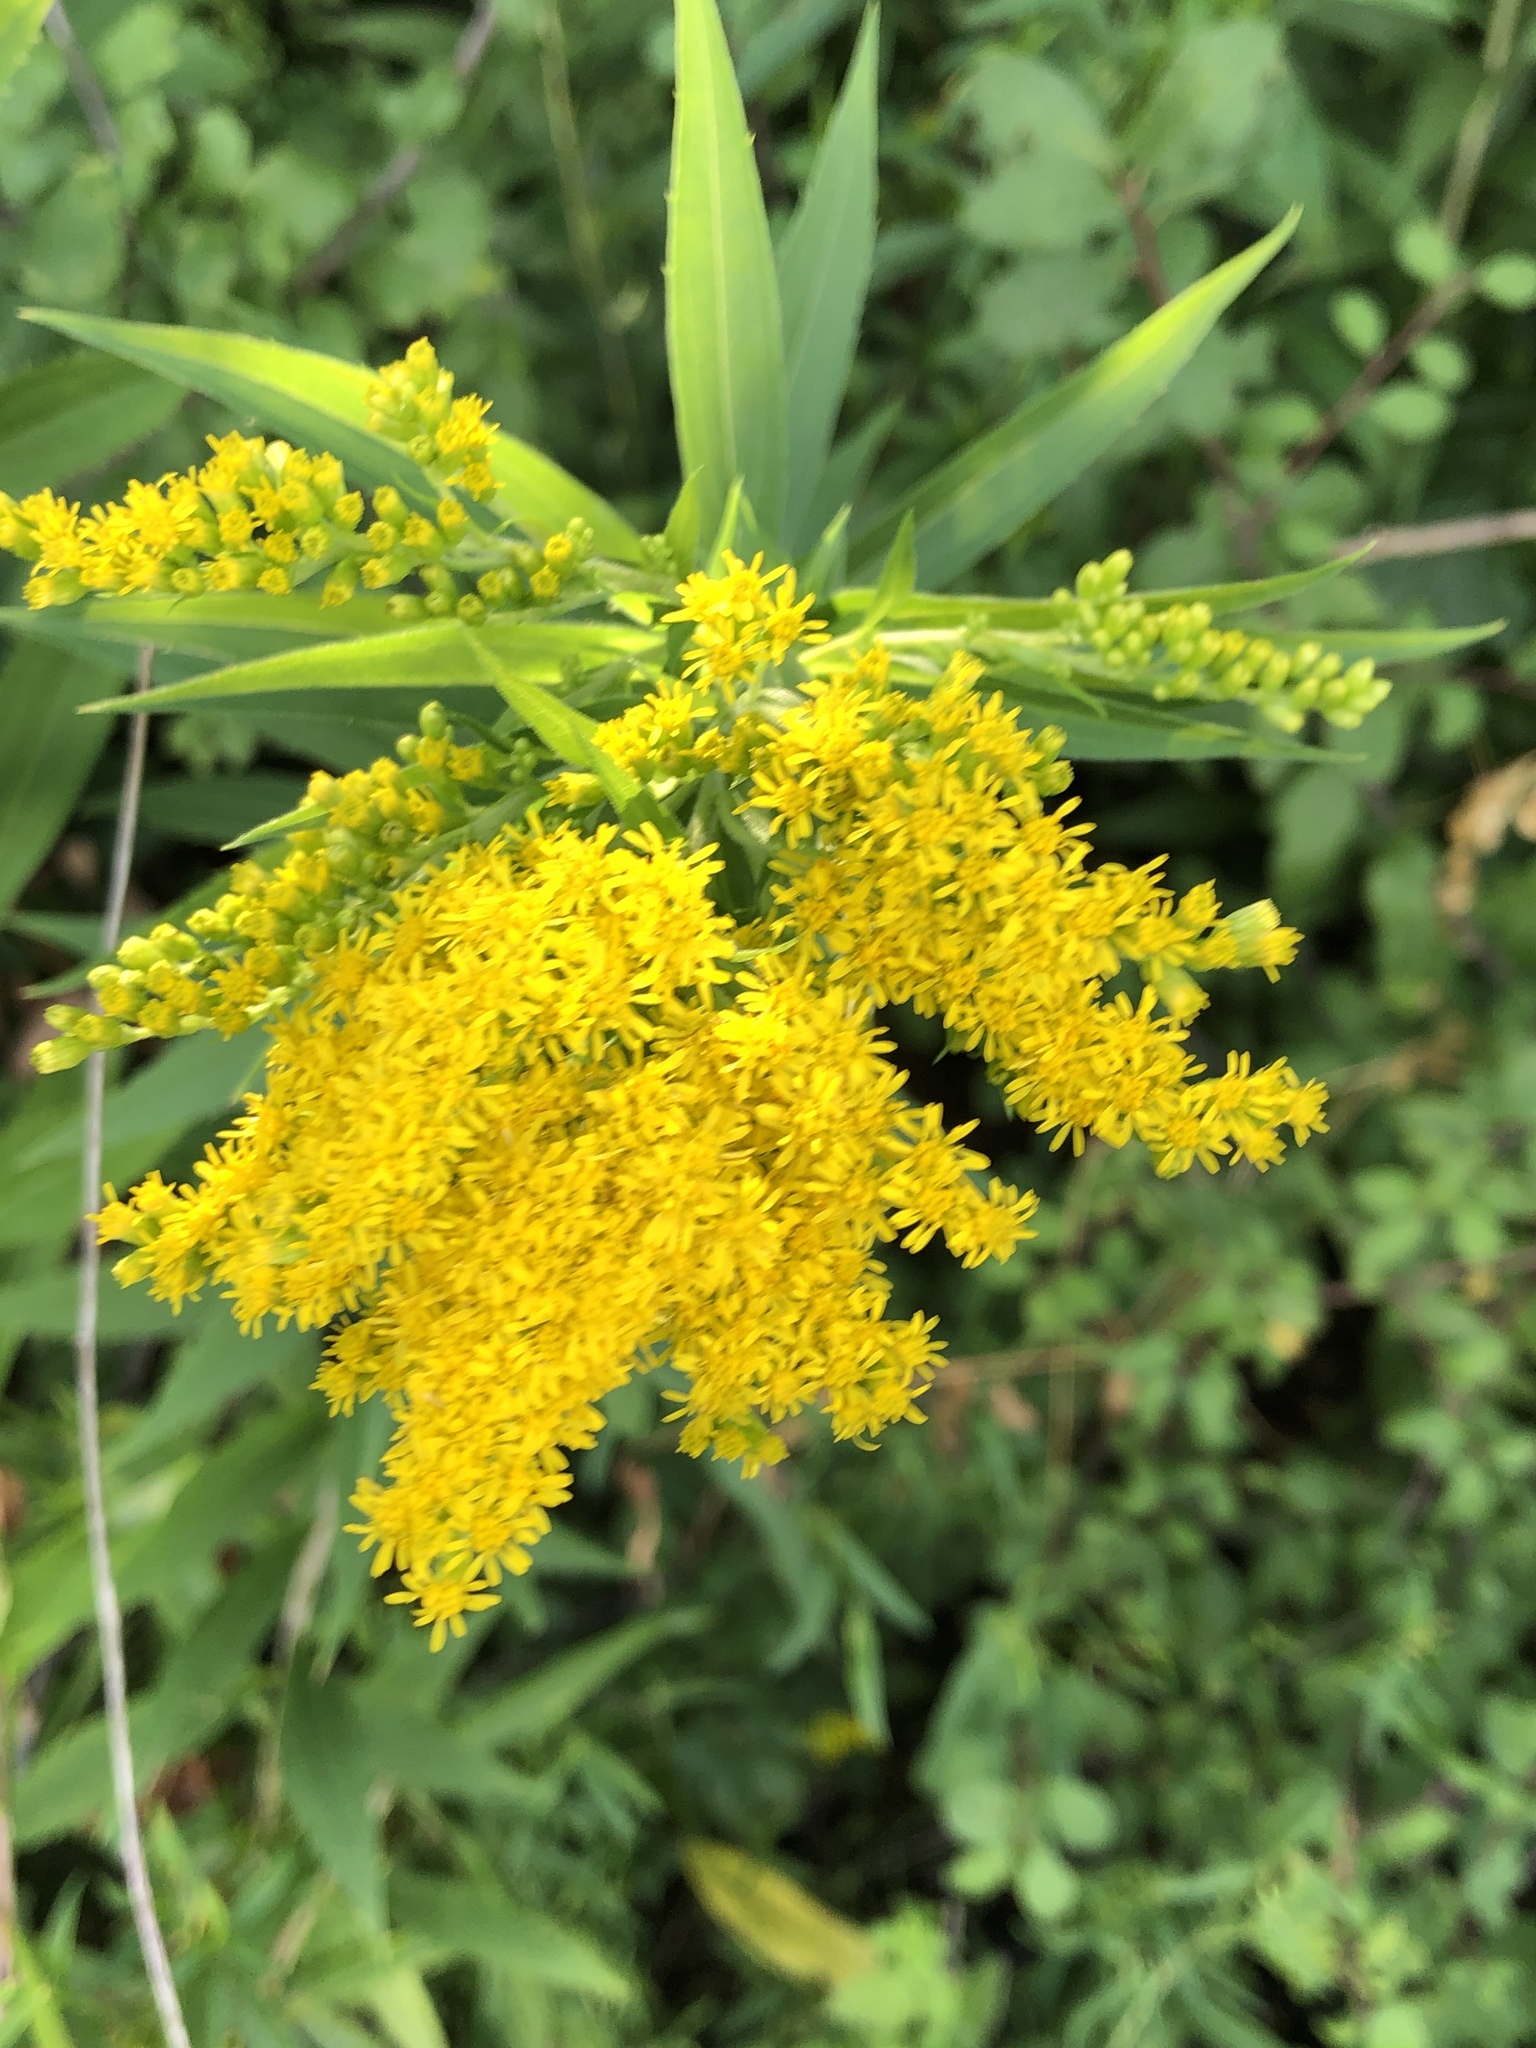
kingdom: Plantae
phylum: Tracheophyta
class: Magnoliopsida
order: Asterales
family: Asteraceae
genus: Solidago
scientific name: Solidago canadensis
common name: Canada goldenrod
